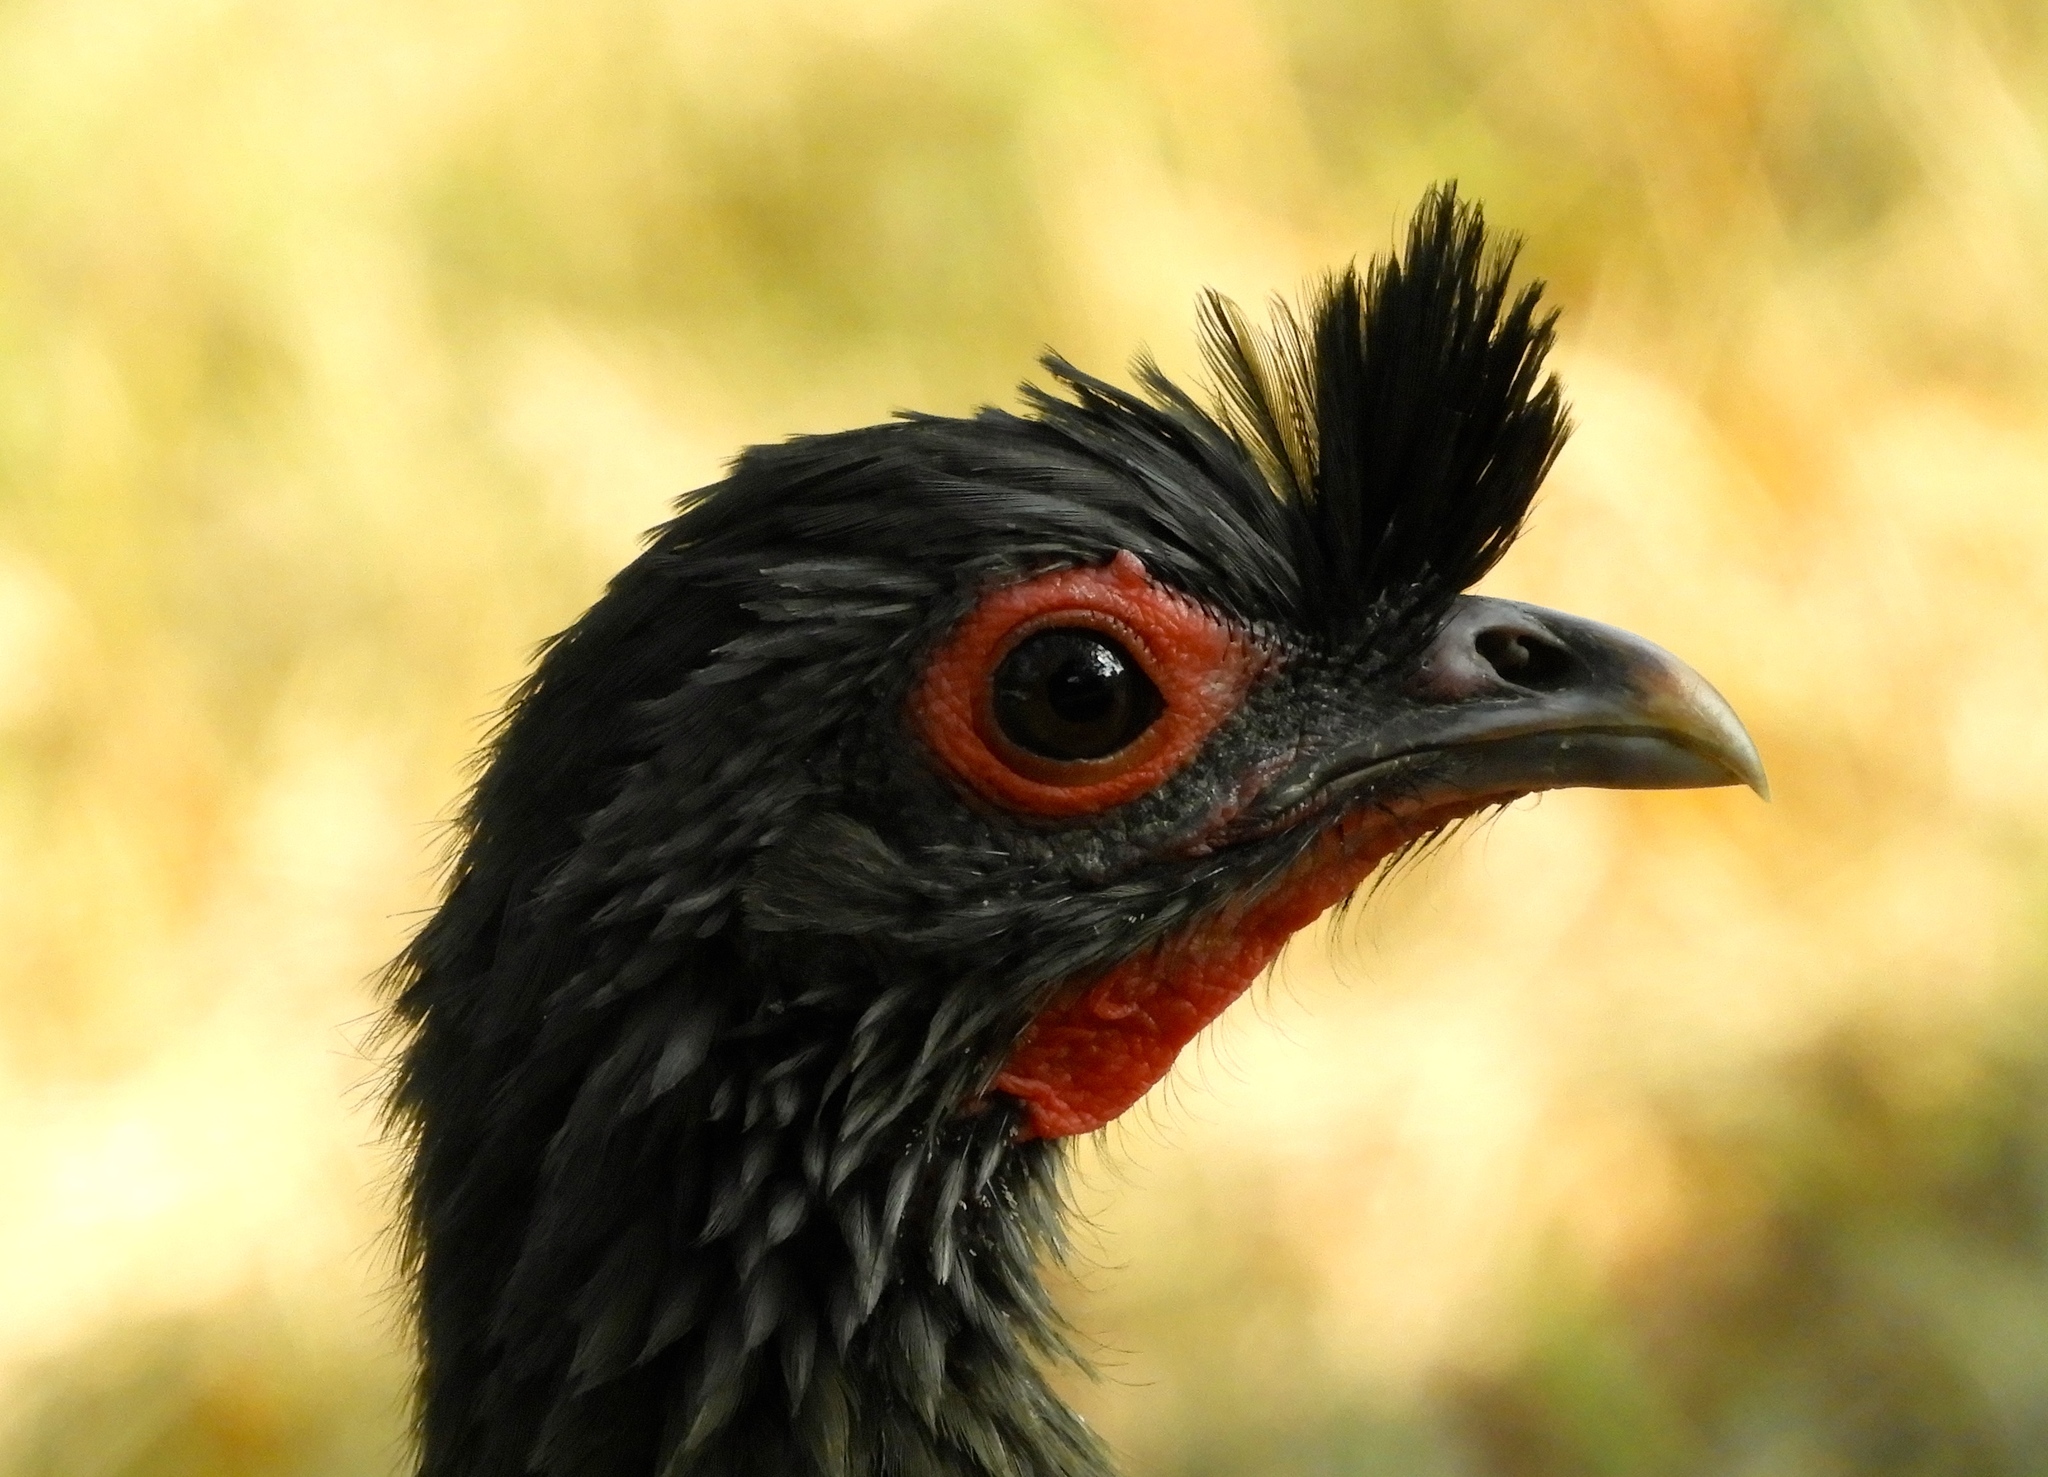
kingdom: Animalia
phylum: Chordata
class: Aves
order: Galliformes
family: Cracidae
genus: Ortalis
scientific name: Ortalis wagleri
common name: Rufous-bellied chachalaca
